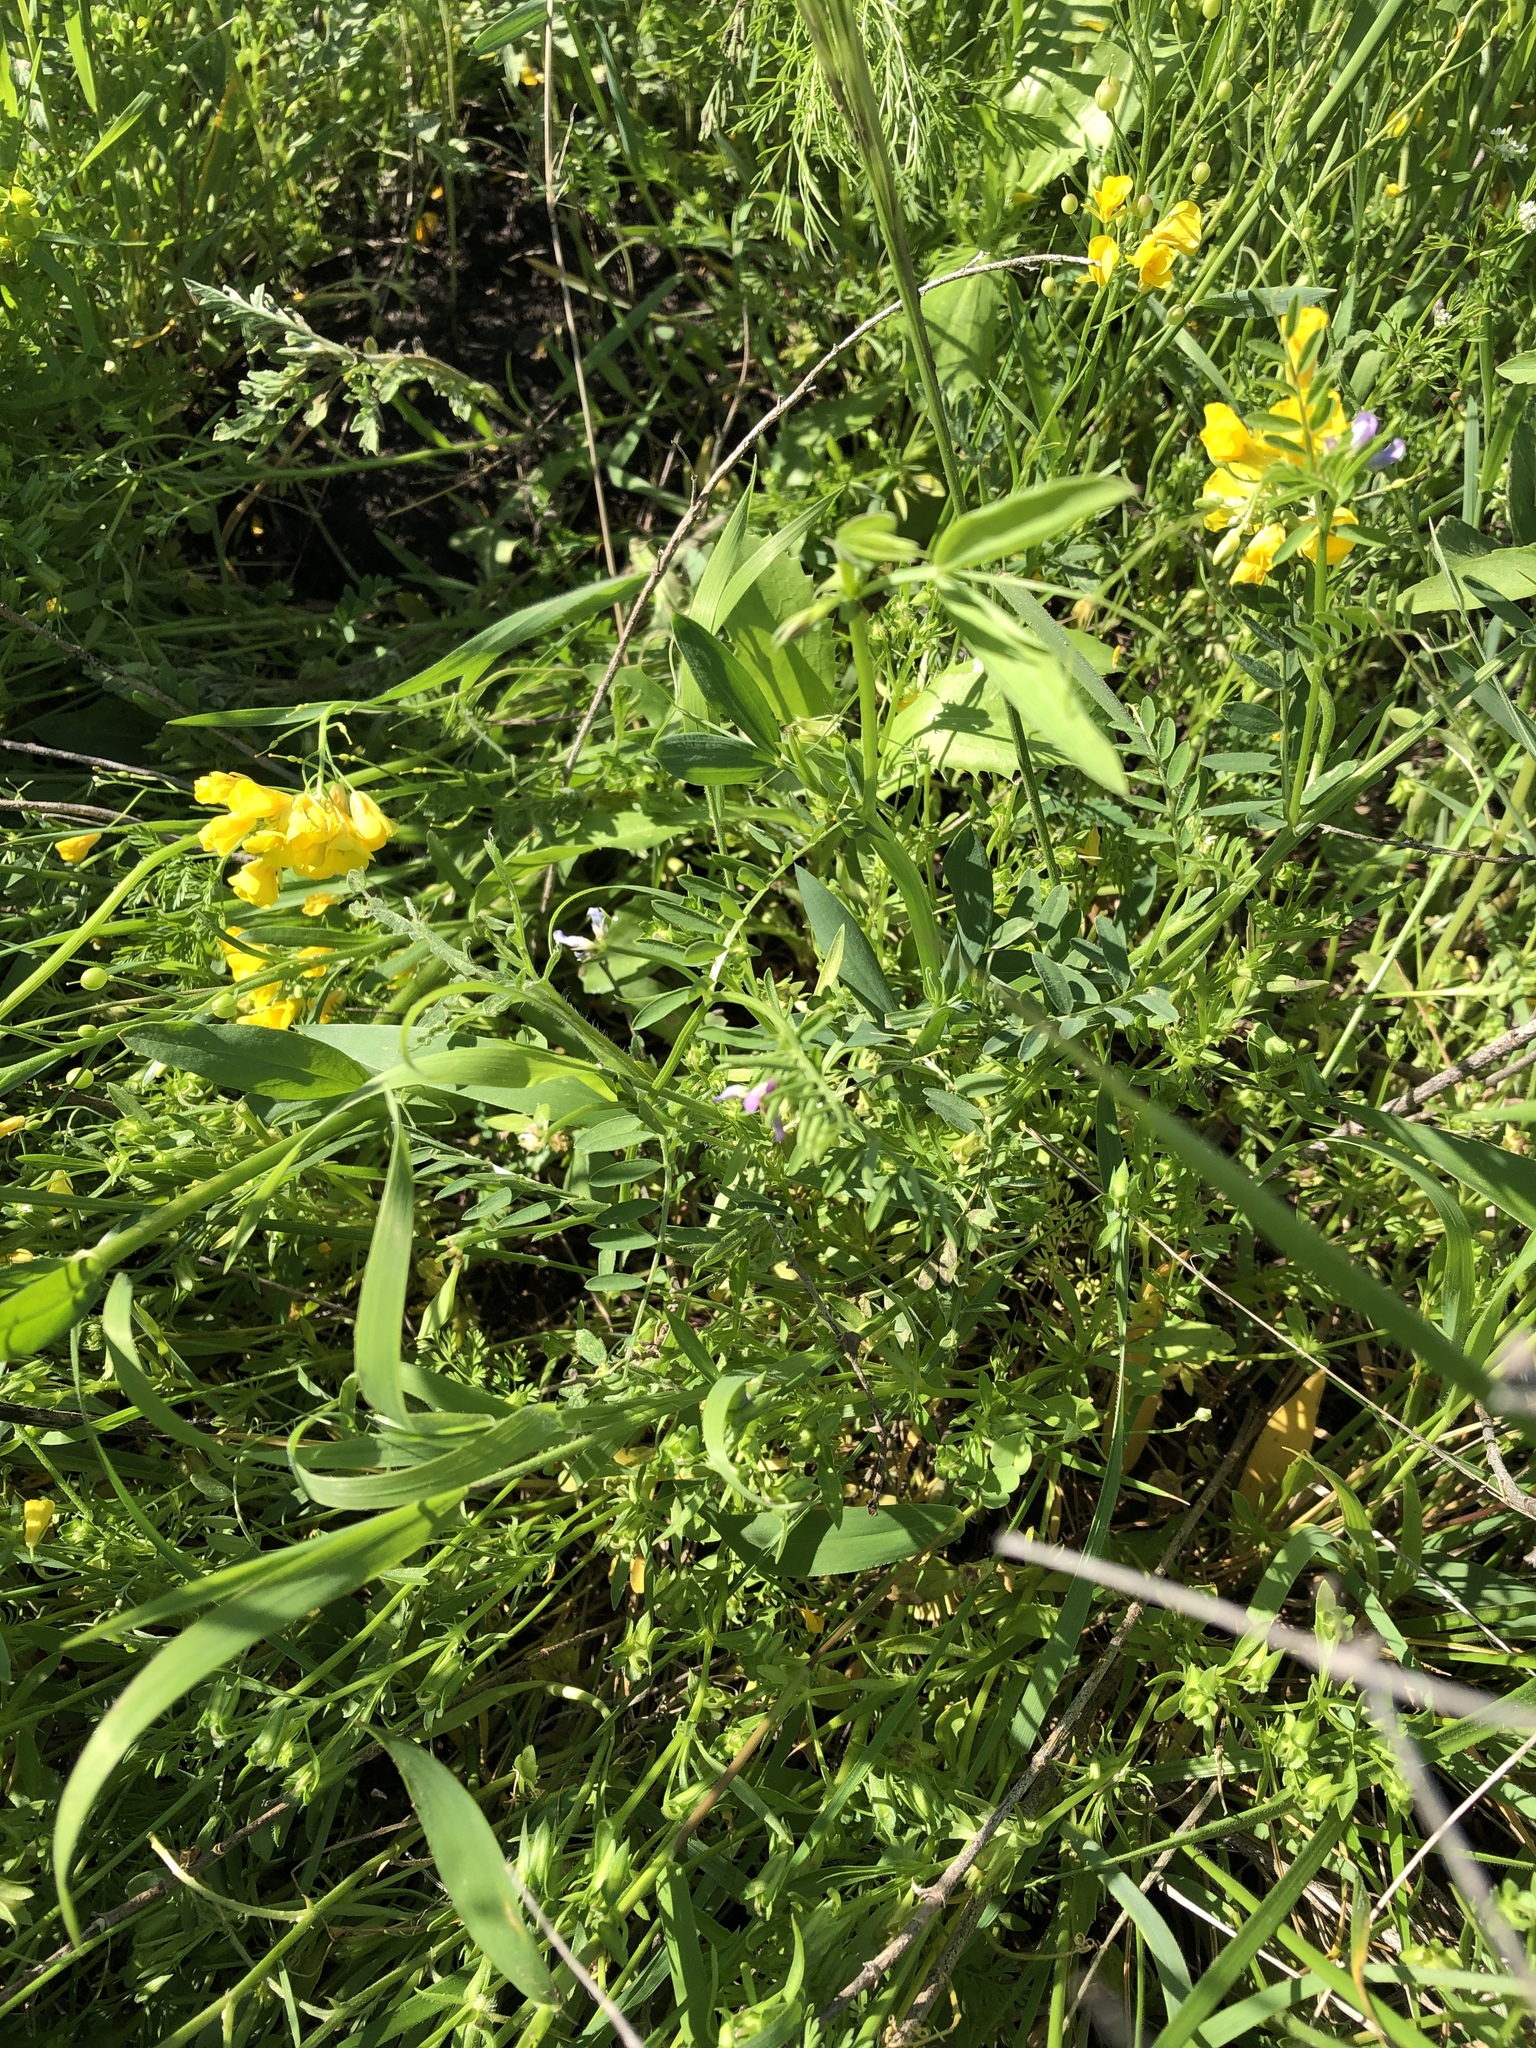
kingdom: Plantae
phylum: Tracheophyta
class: Magnoliopsida
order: Fabales
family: Fabaceae
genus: Vicia
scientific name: Vicia ludoviciana
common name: Louisiana vetch
